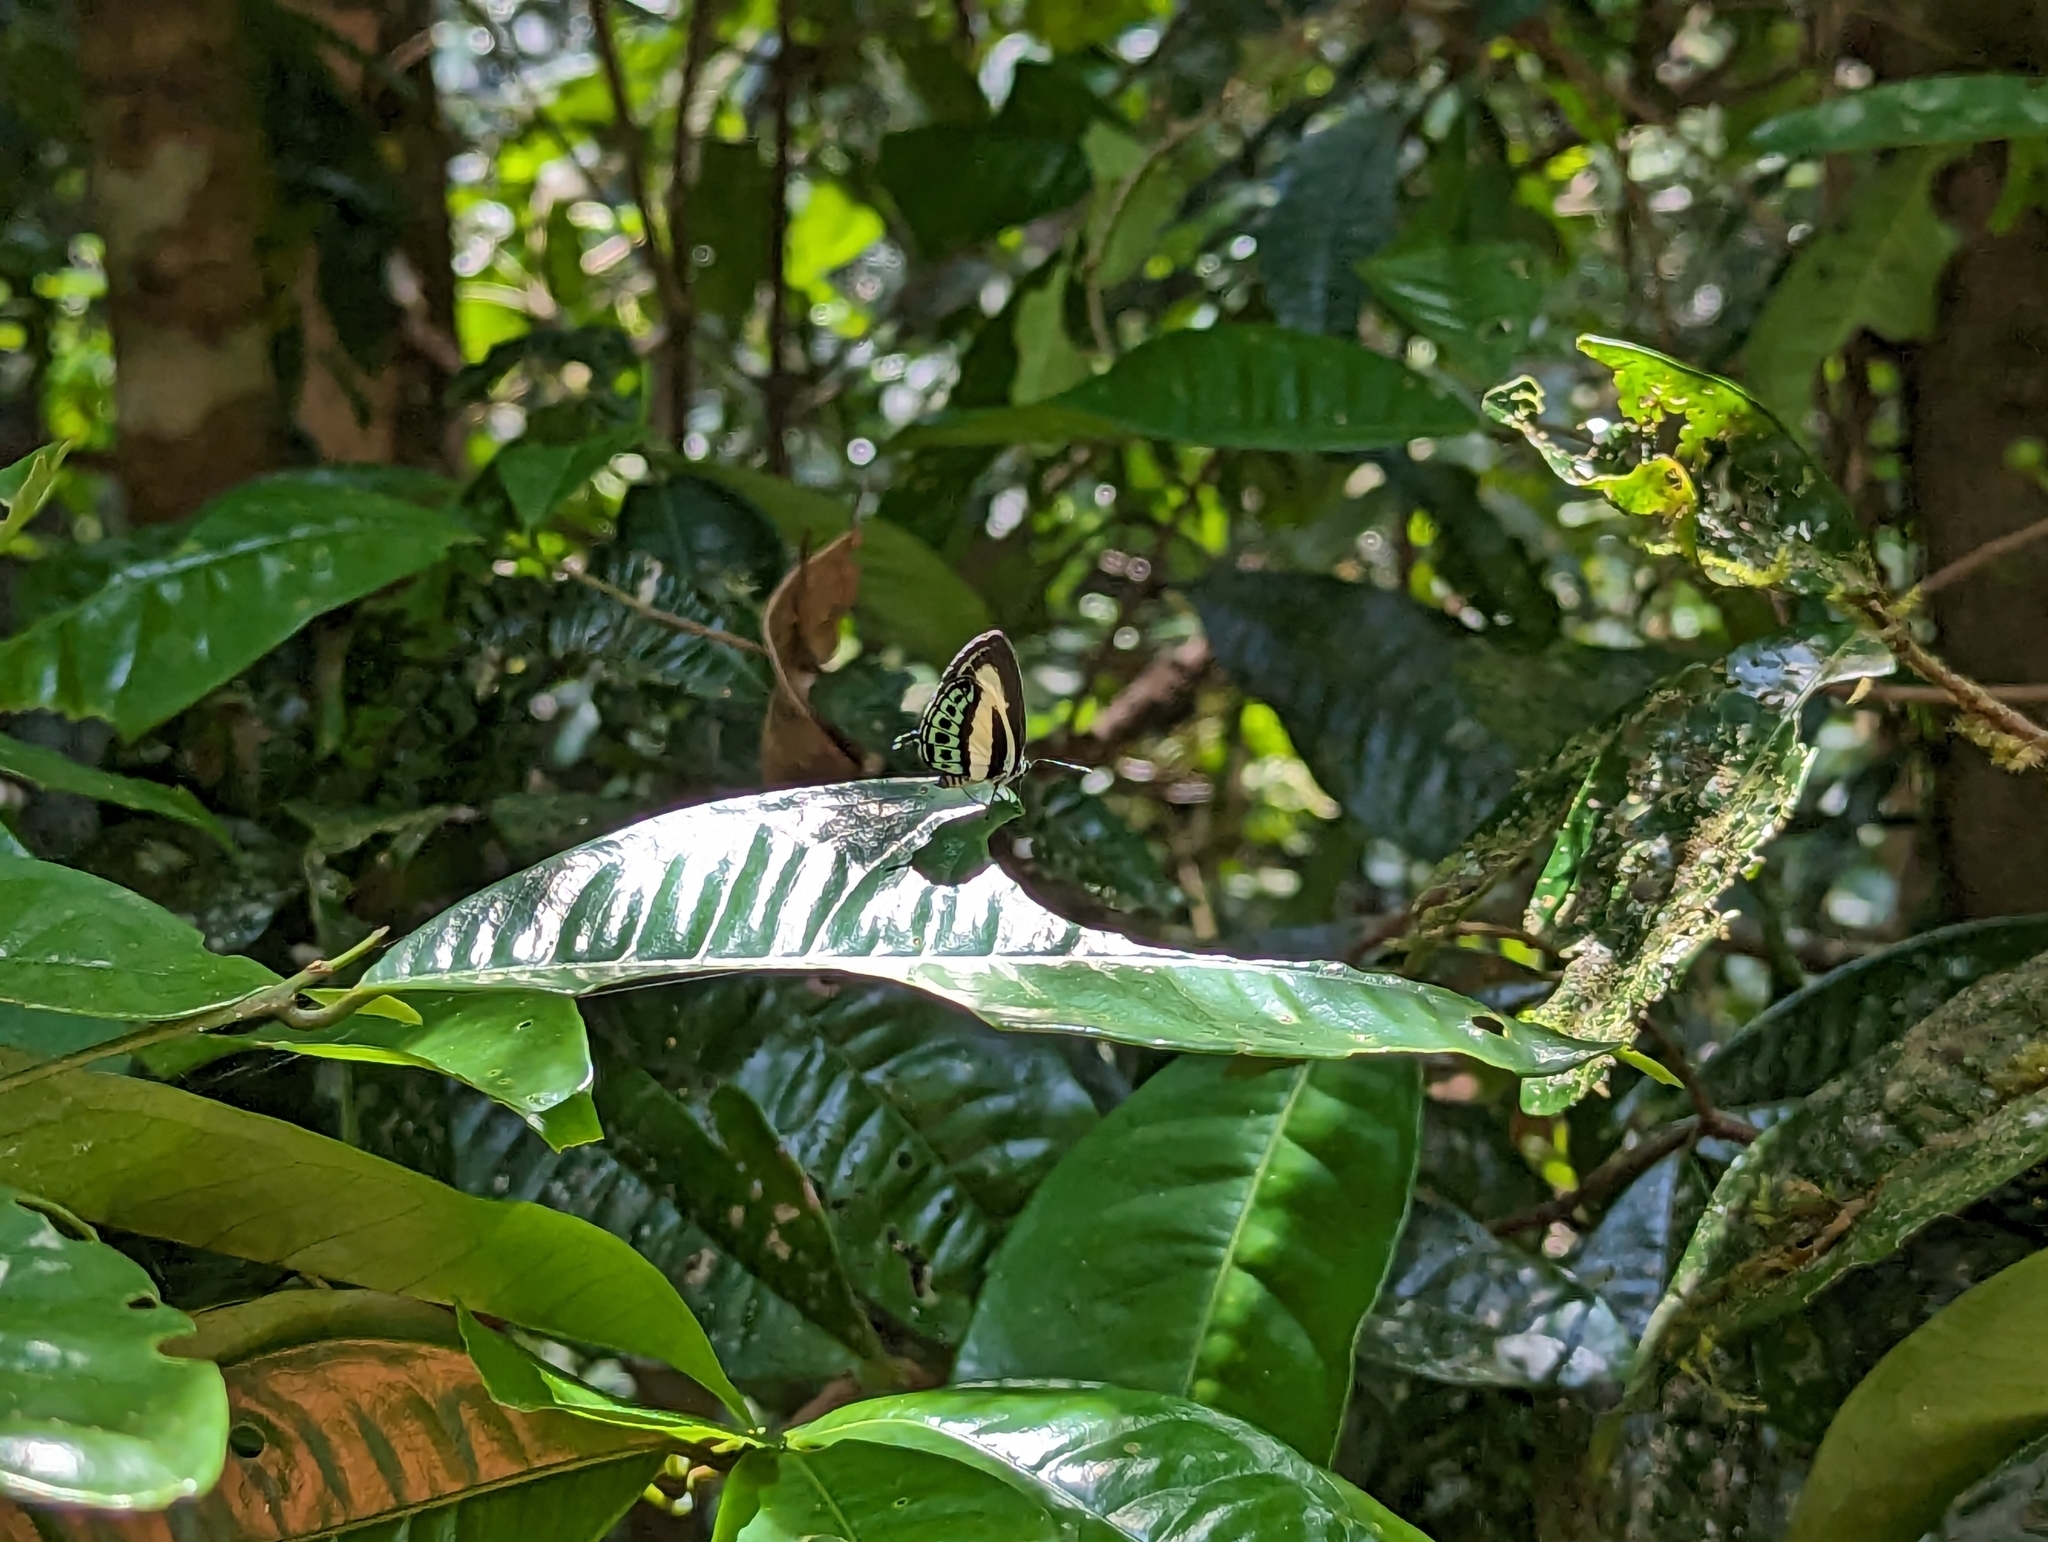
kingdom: Animalia
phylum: Arthropoda
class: Insecta
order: Lepidoptera
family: Lycaenidae
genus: Nacaduba
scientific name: Nacaduba cyanea
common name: Tailed green-banded line blue
